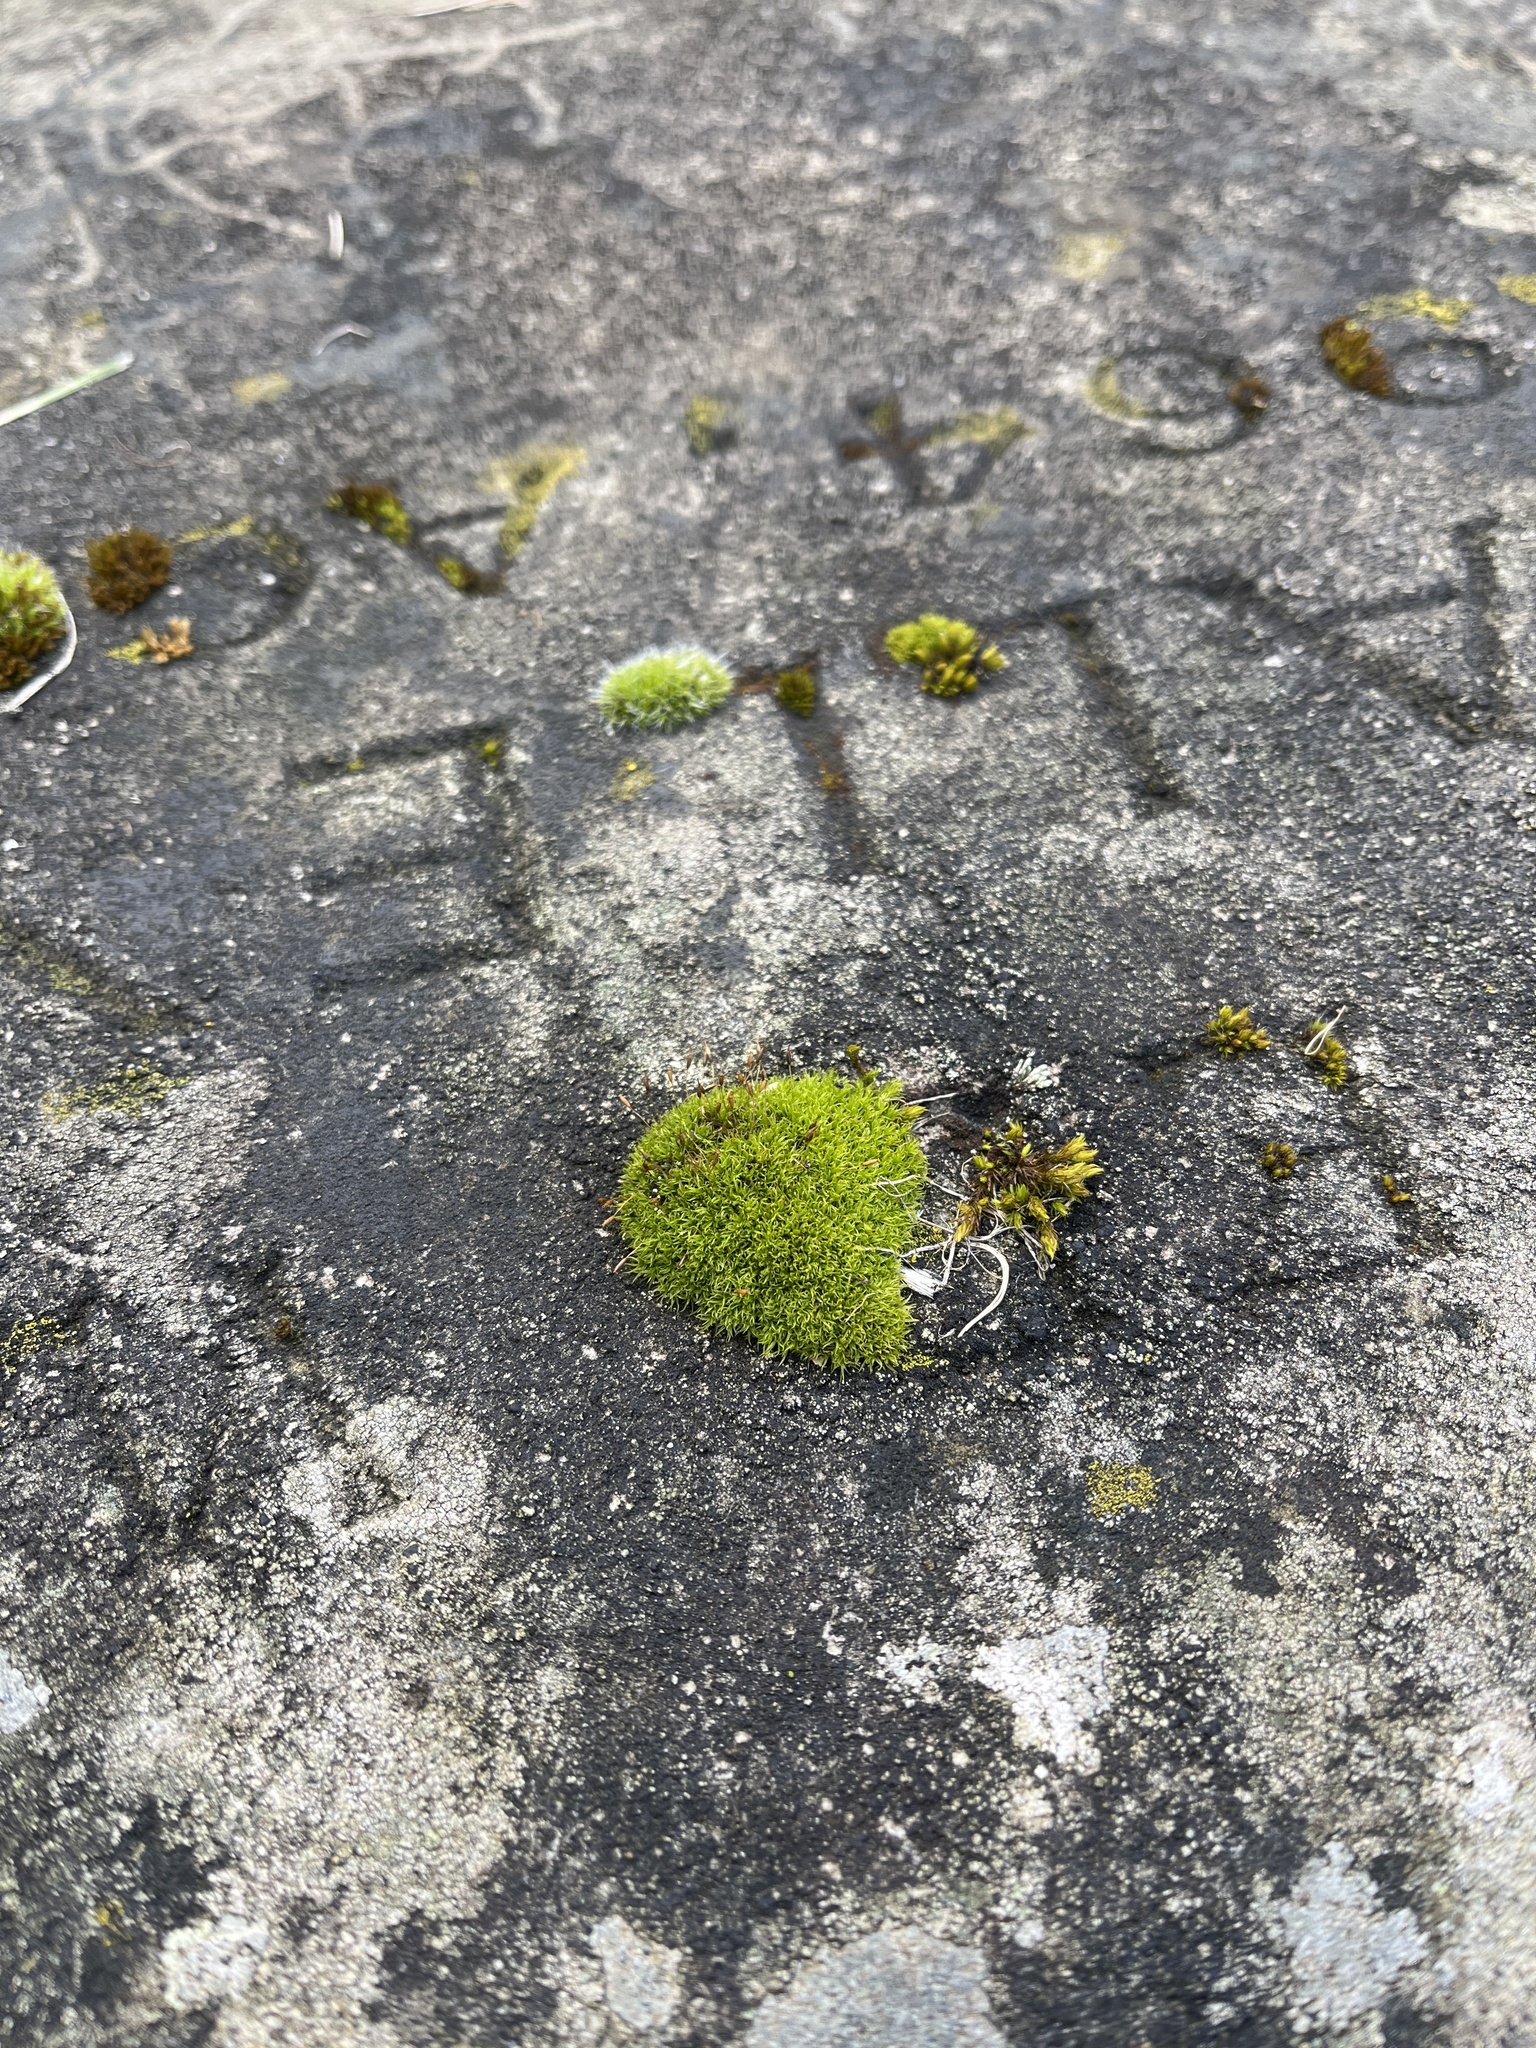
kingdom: Plantae
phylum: Bryophyta
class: Bryopsida
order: Dicranales
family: Rhabdoweisiaceae
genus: Dicranoweisia
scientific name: Dicranoweisia cirrata
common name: Common pincushion
